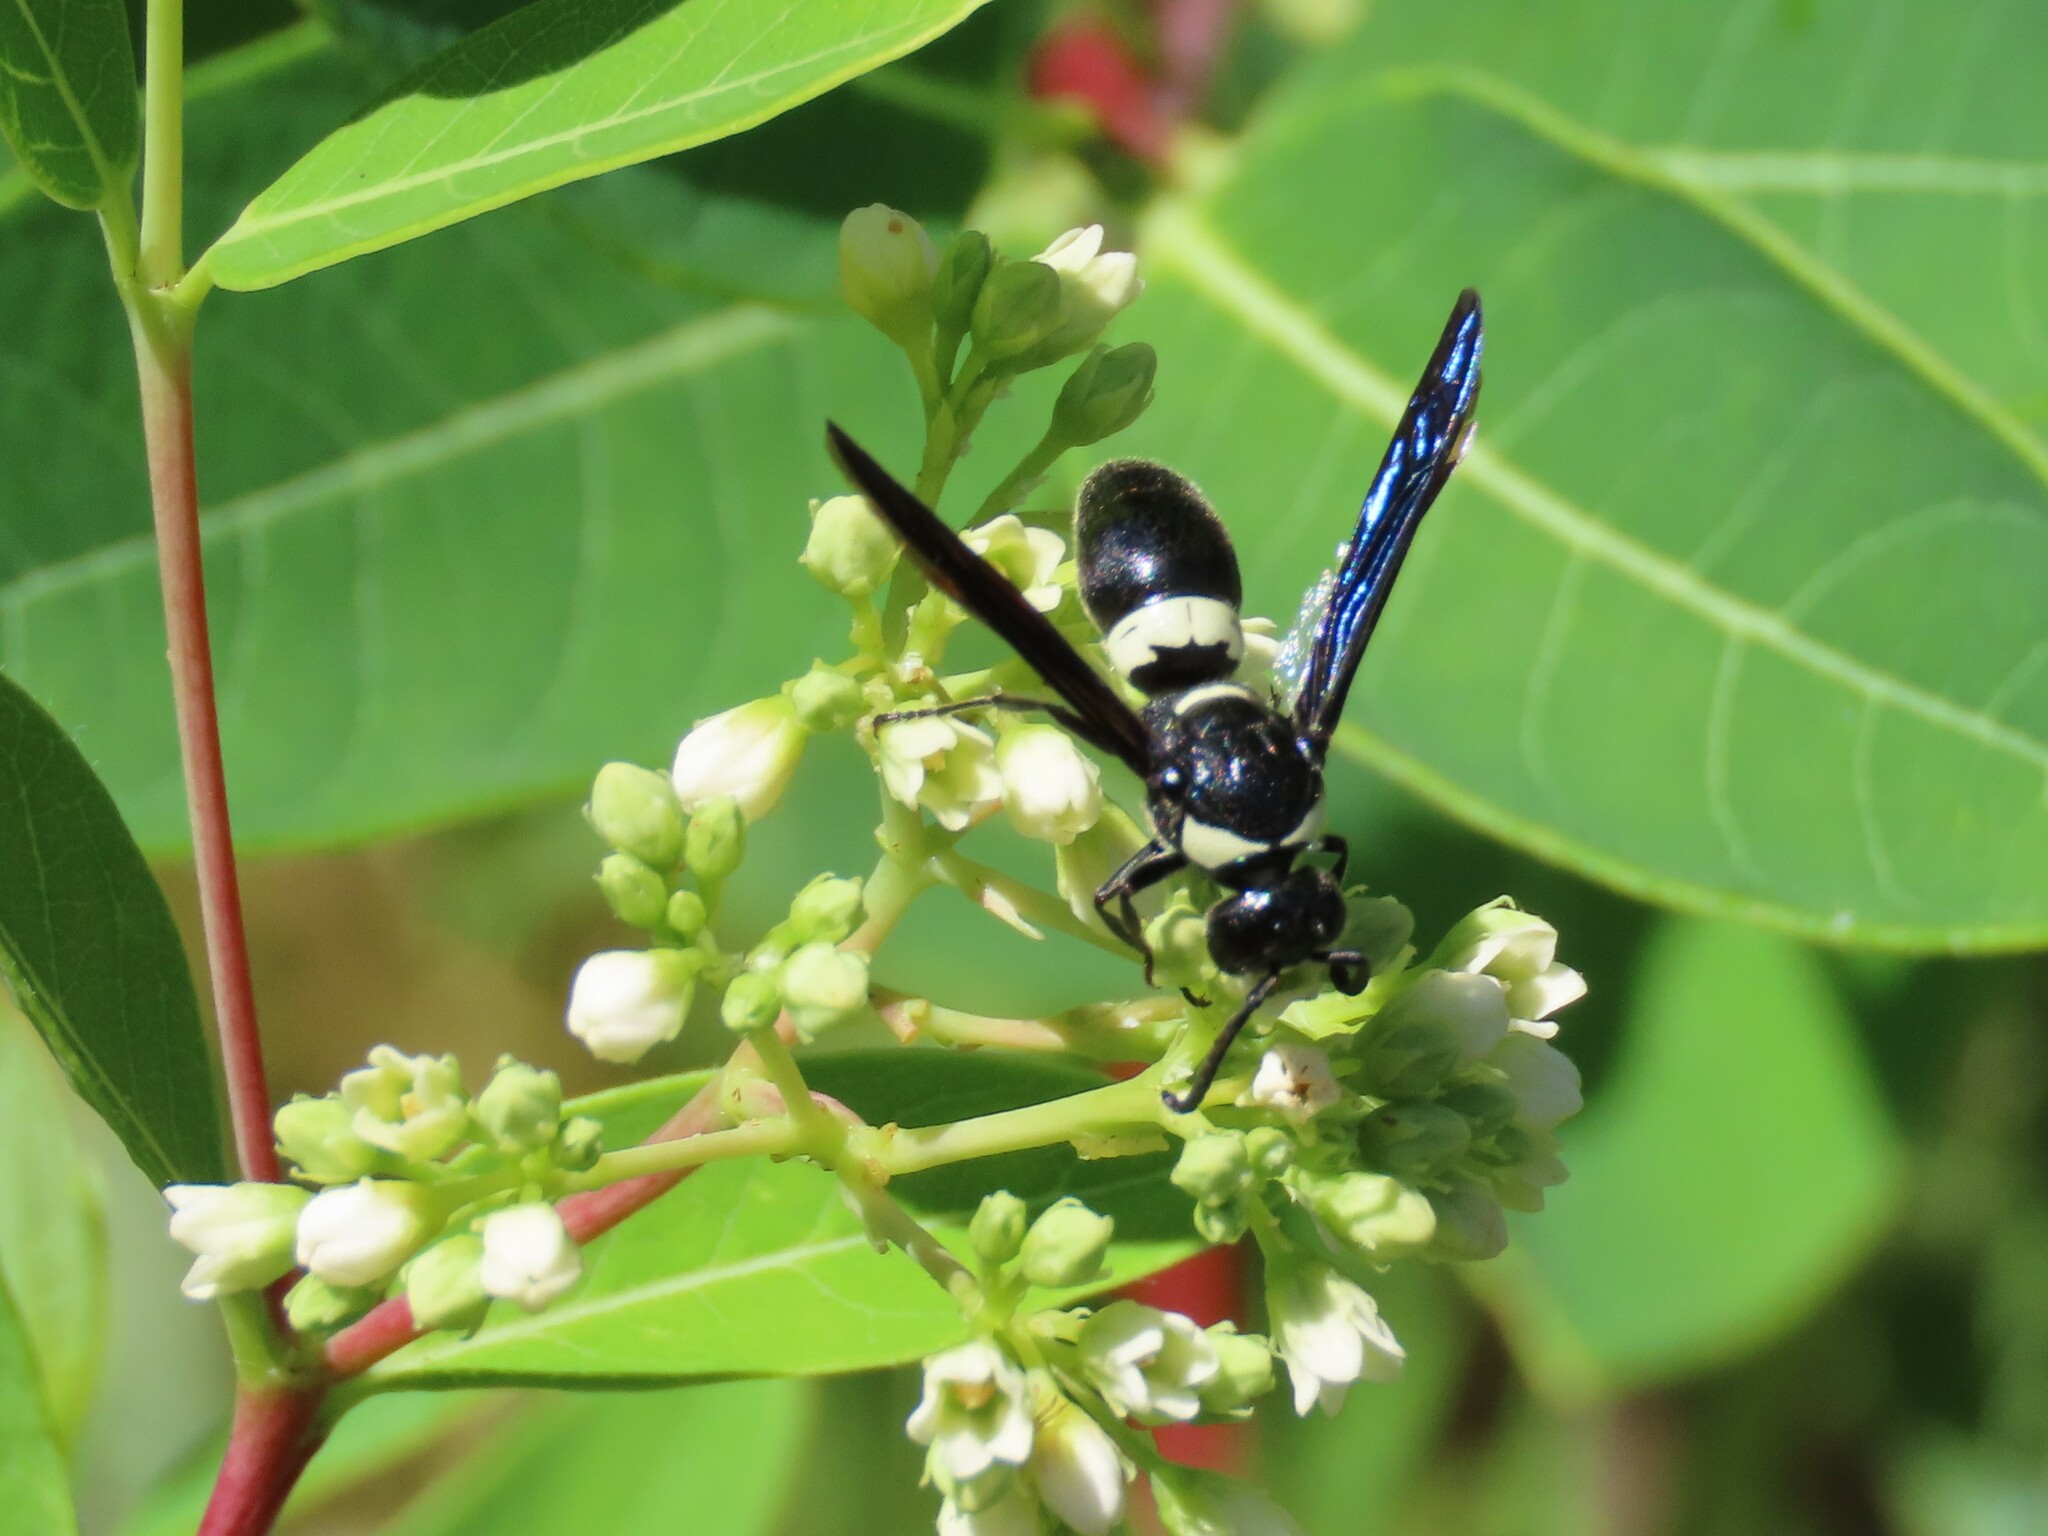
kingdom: Animalia
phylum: Arthropoda
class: Insecta
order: Hymenoptera
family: Eumenidae
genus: Monobia
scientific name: Monobia quadridens
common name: Four-toothed mason wasp
